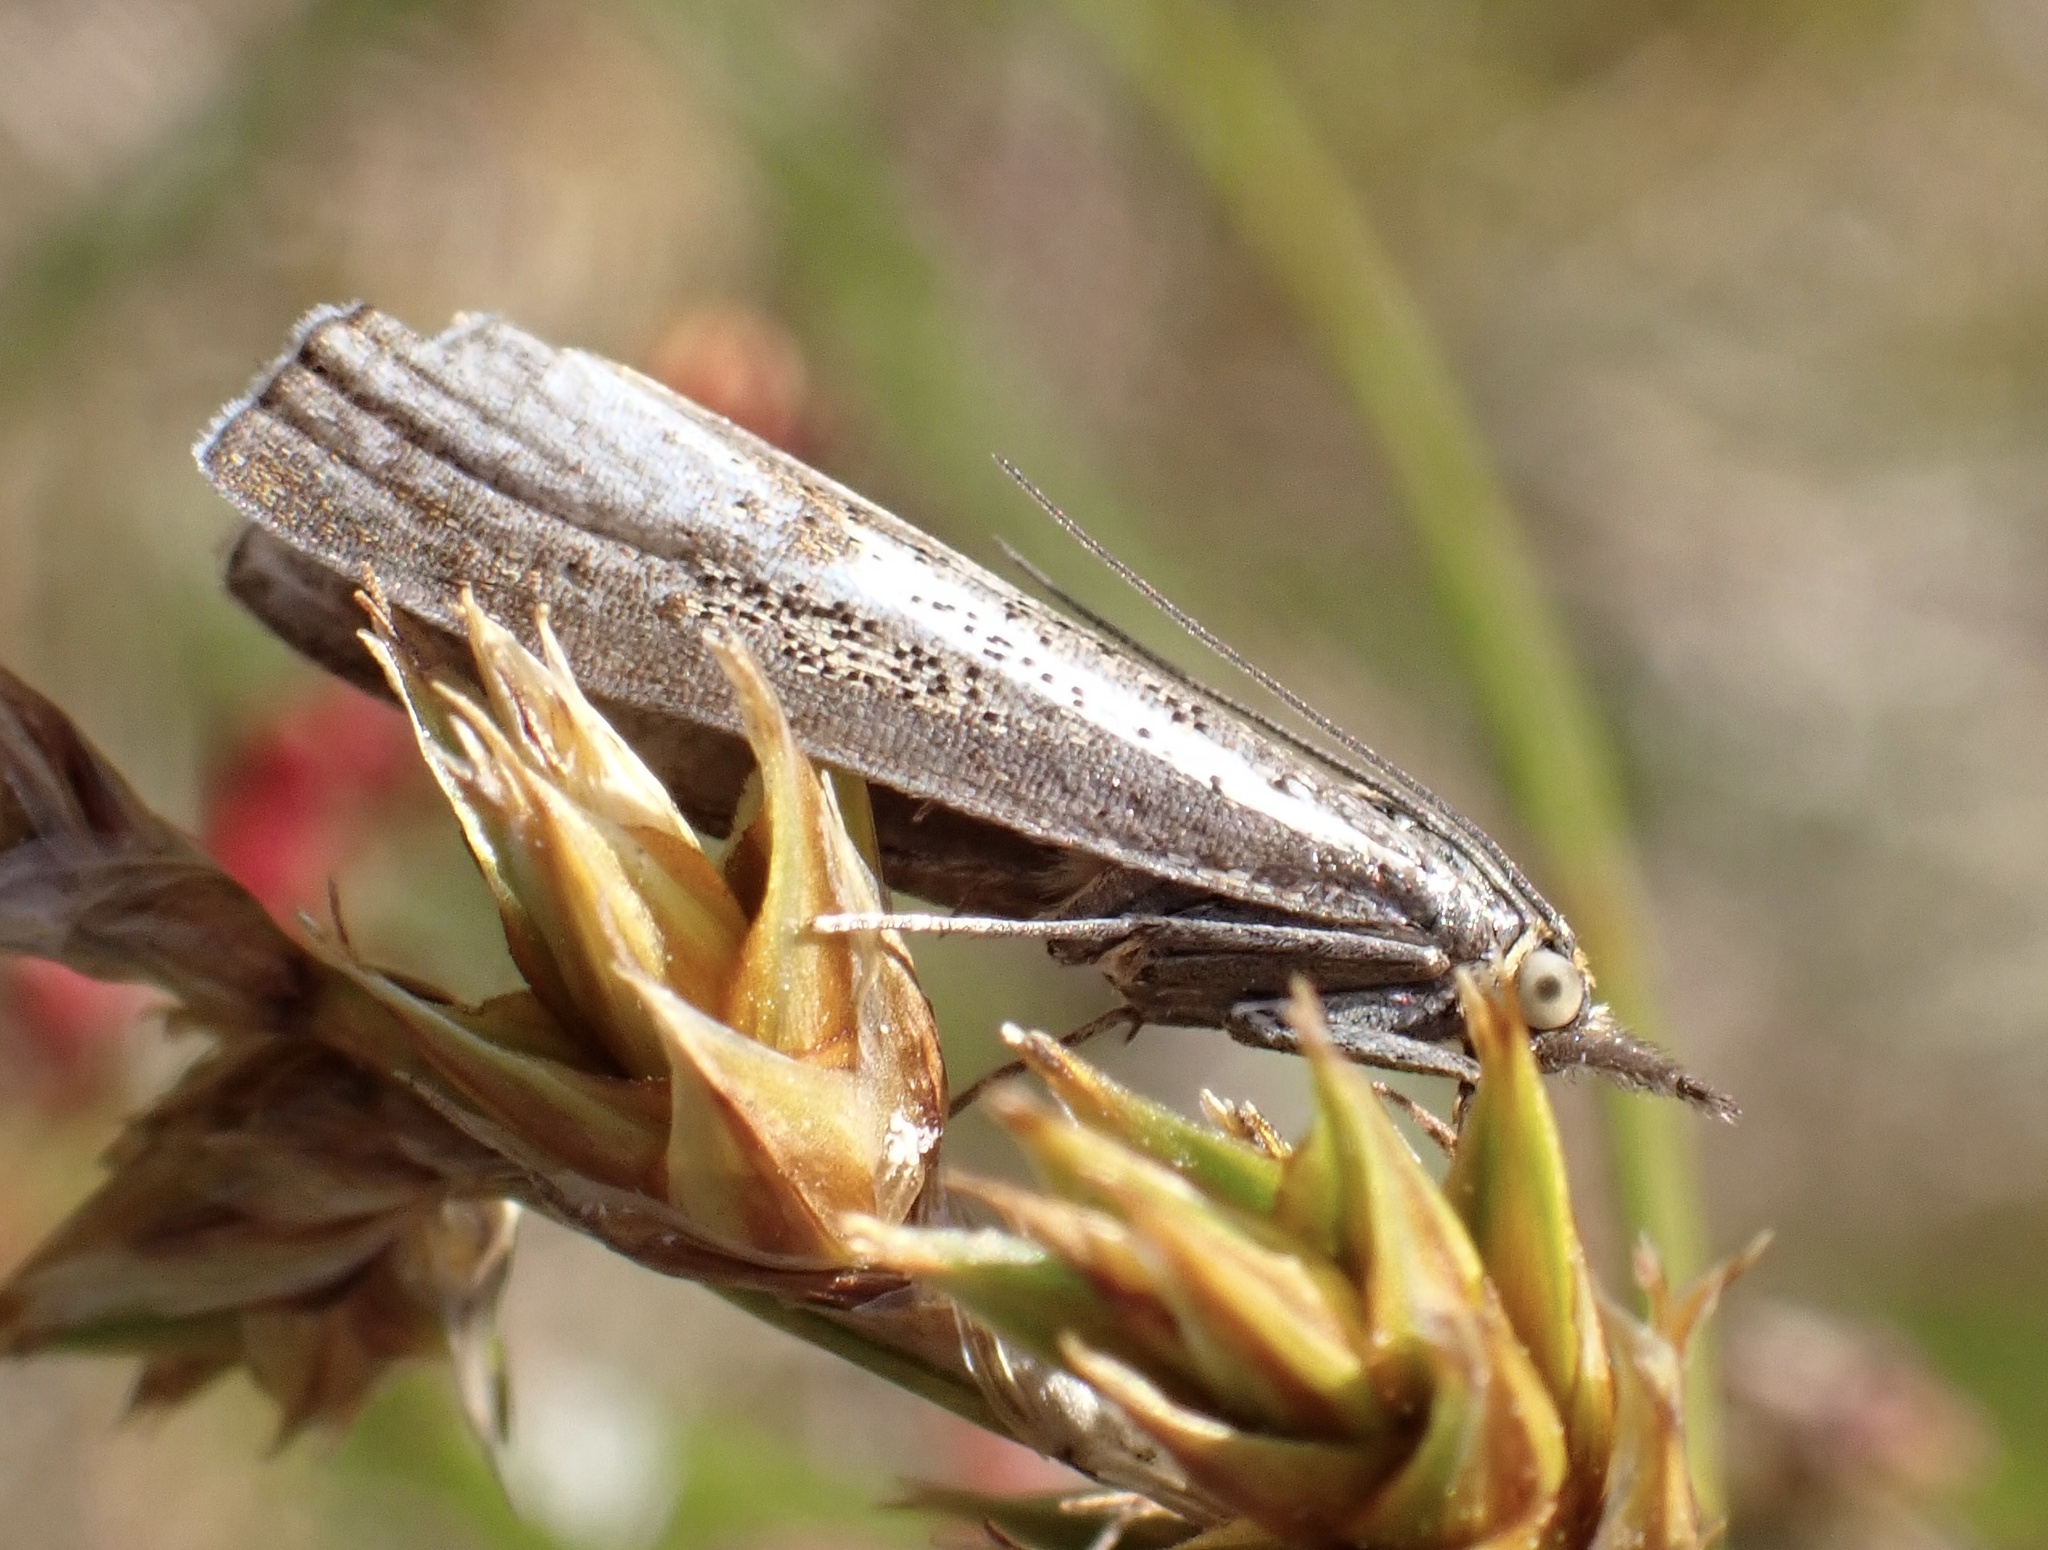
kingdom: Animalia
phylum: Arthropoda
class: Insecta
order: Lepidoptera
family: Crambidae
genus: Thisanotia
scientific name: Thisanotia chrysonuchella
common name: Powdered grass-veneer
